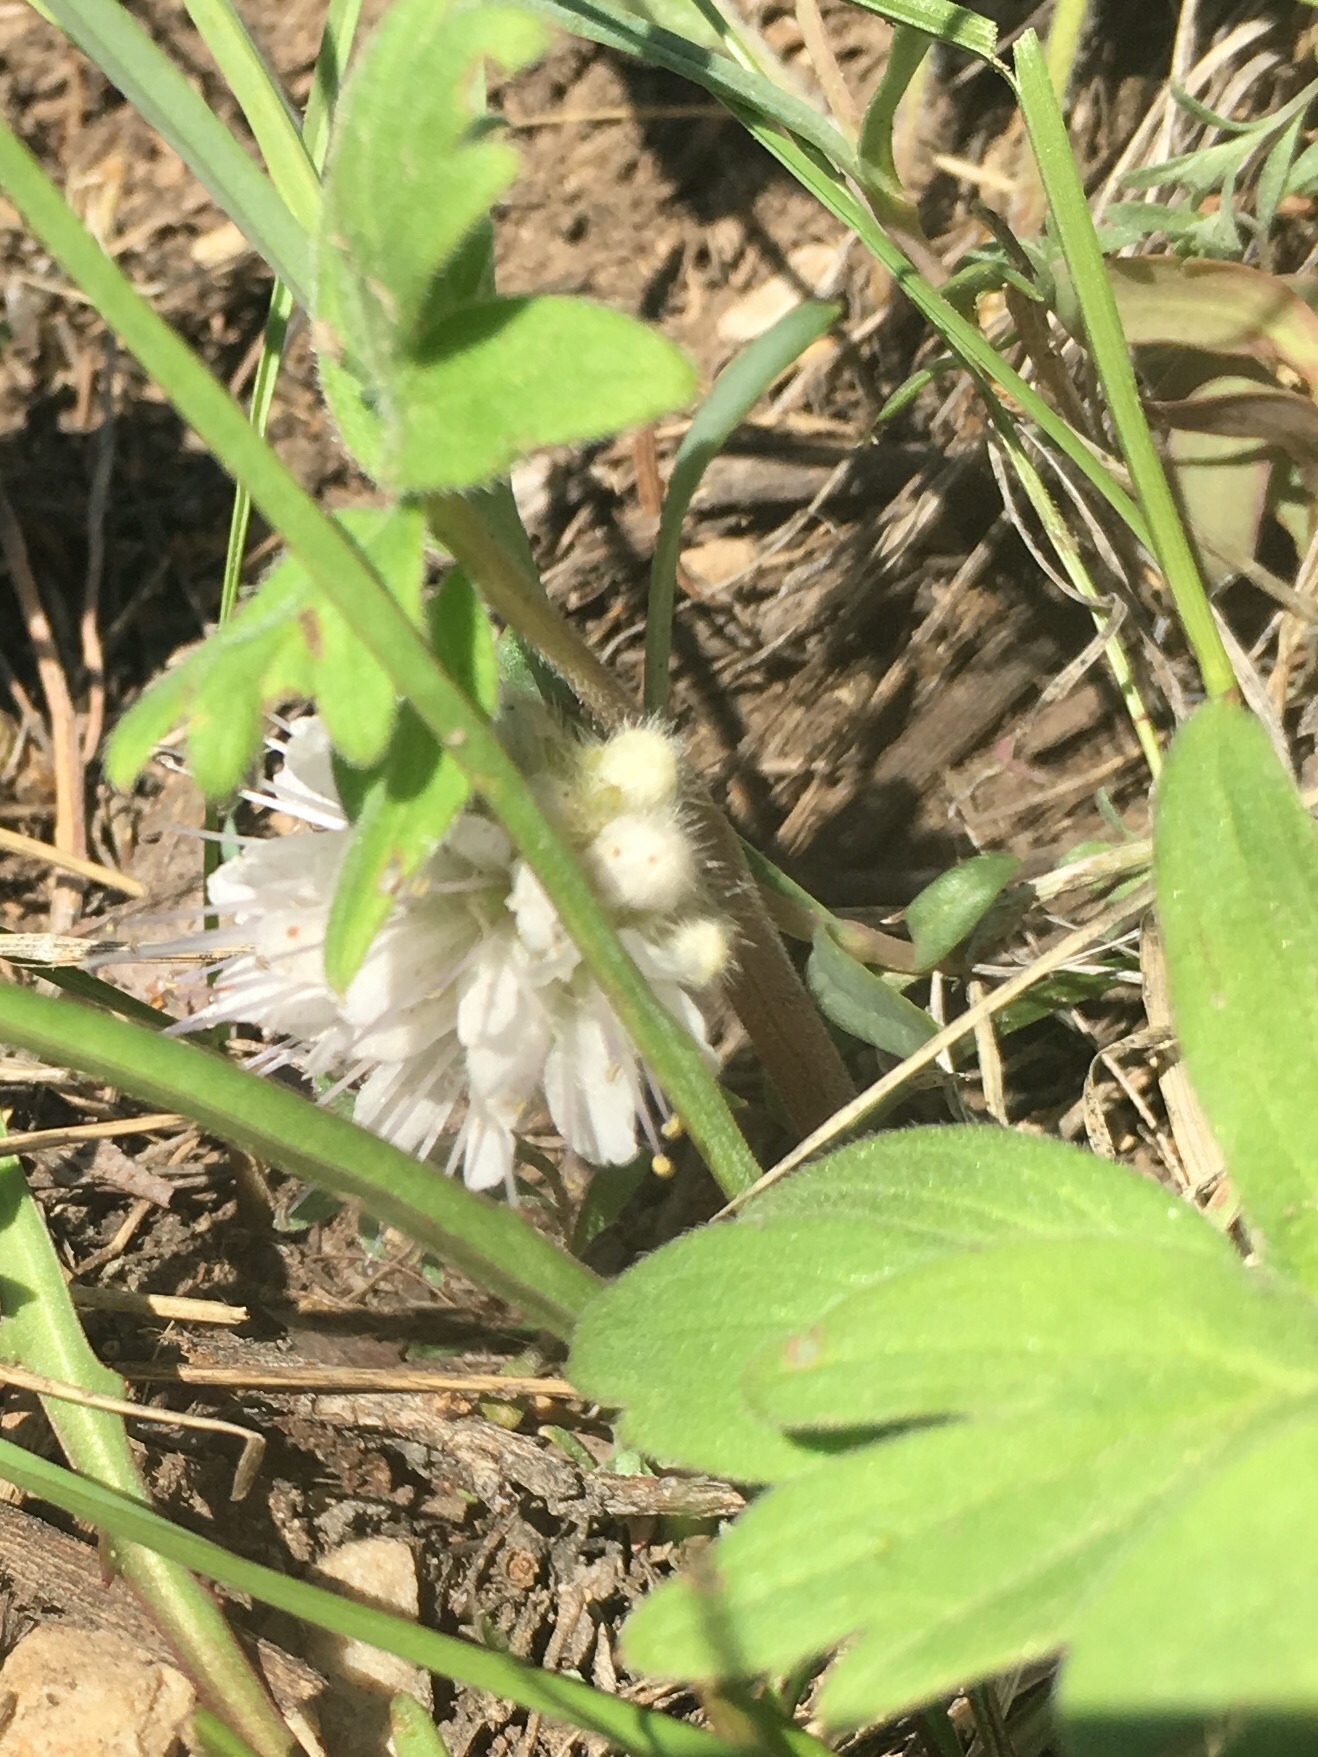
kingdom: Plantae
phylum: Tracheophyta
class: Magnoliopsida
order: Boraginales
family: Hydrophyllaceae
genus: Hydrophyllum
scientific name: Hydrophyllum capitatum
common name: Woollen-breeches
